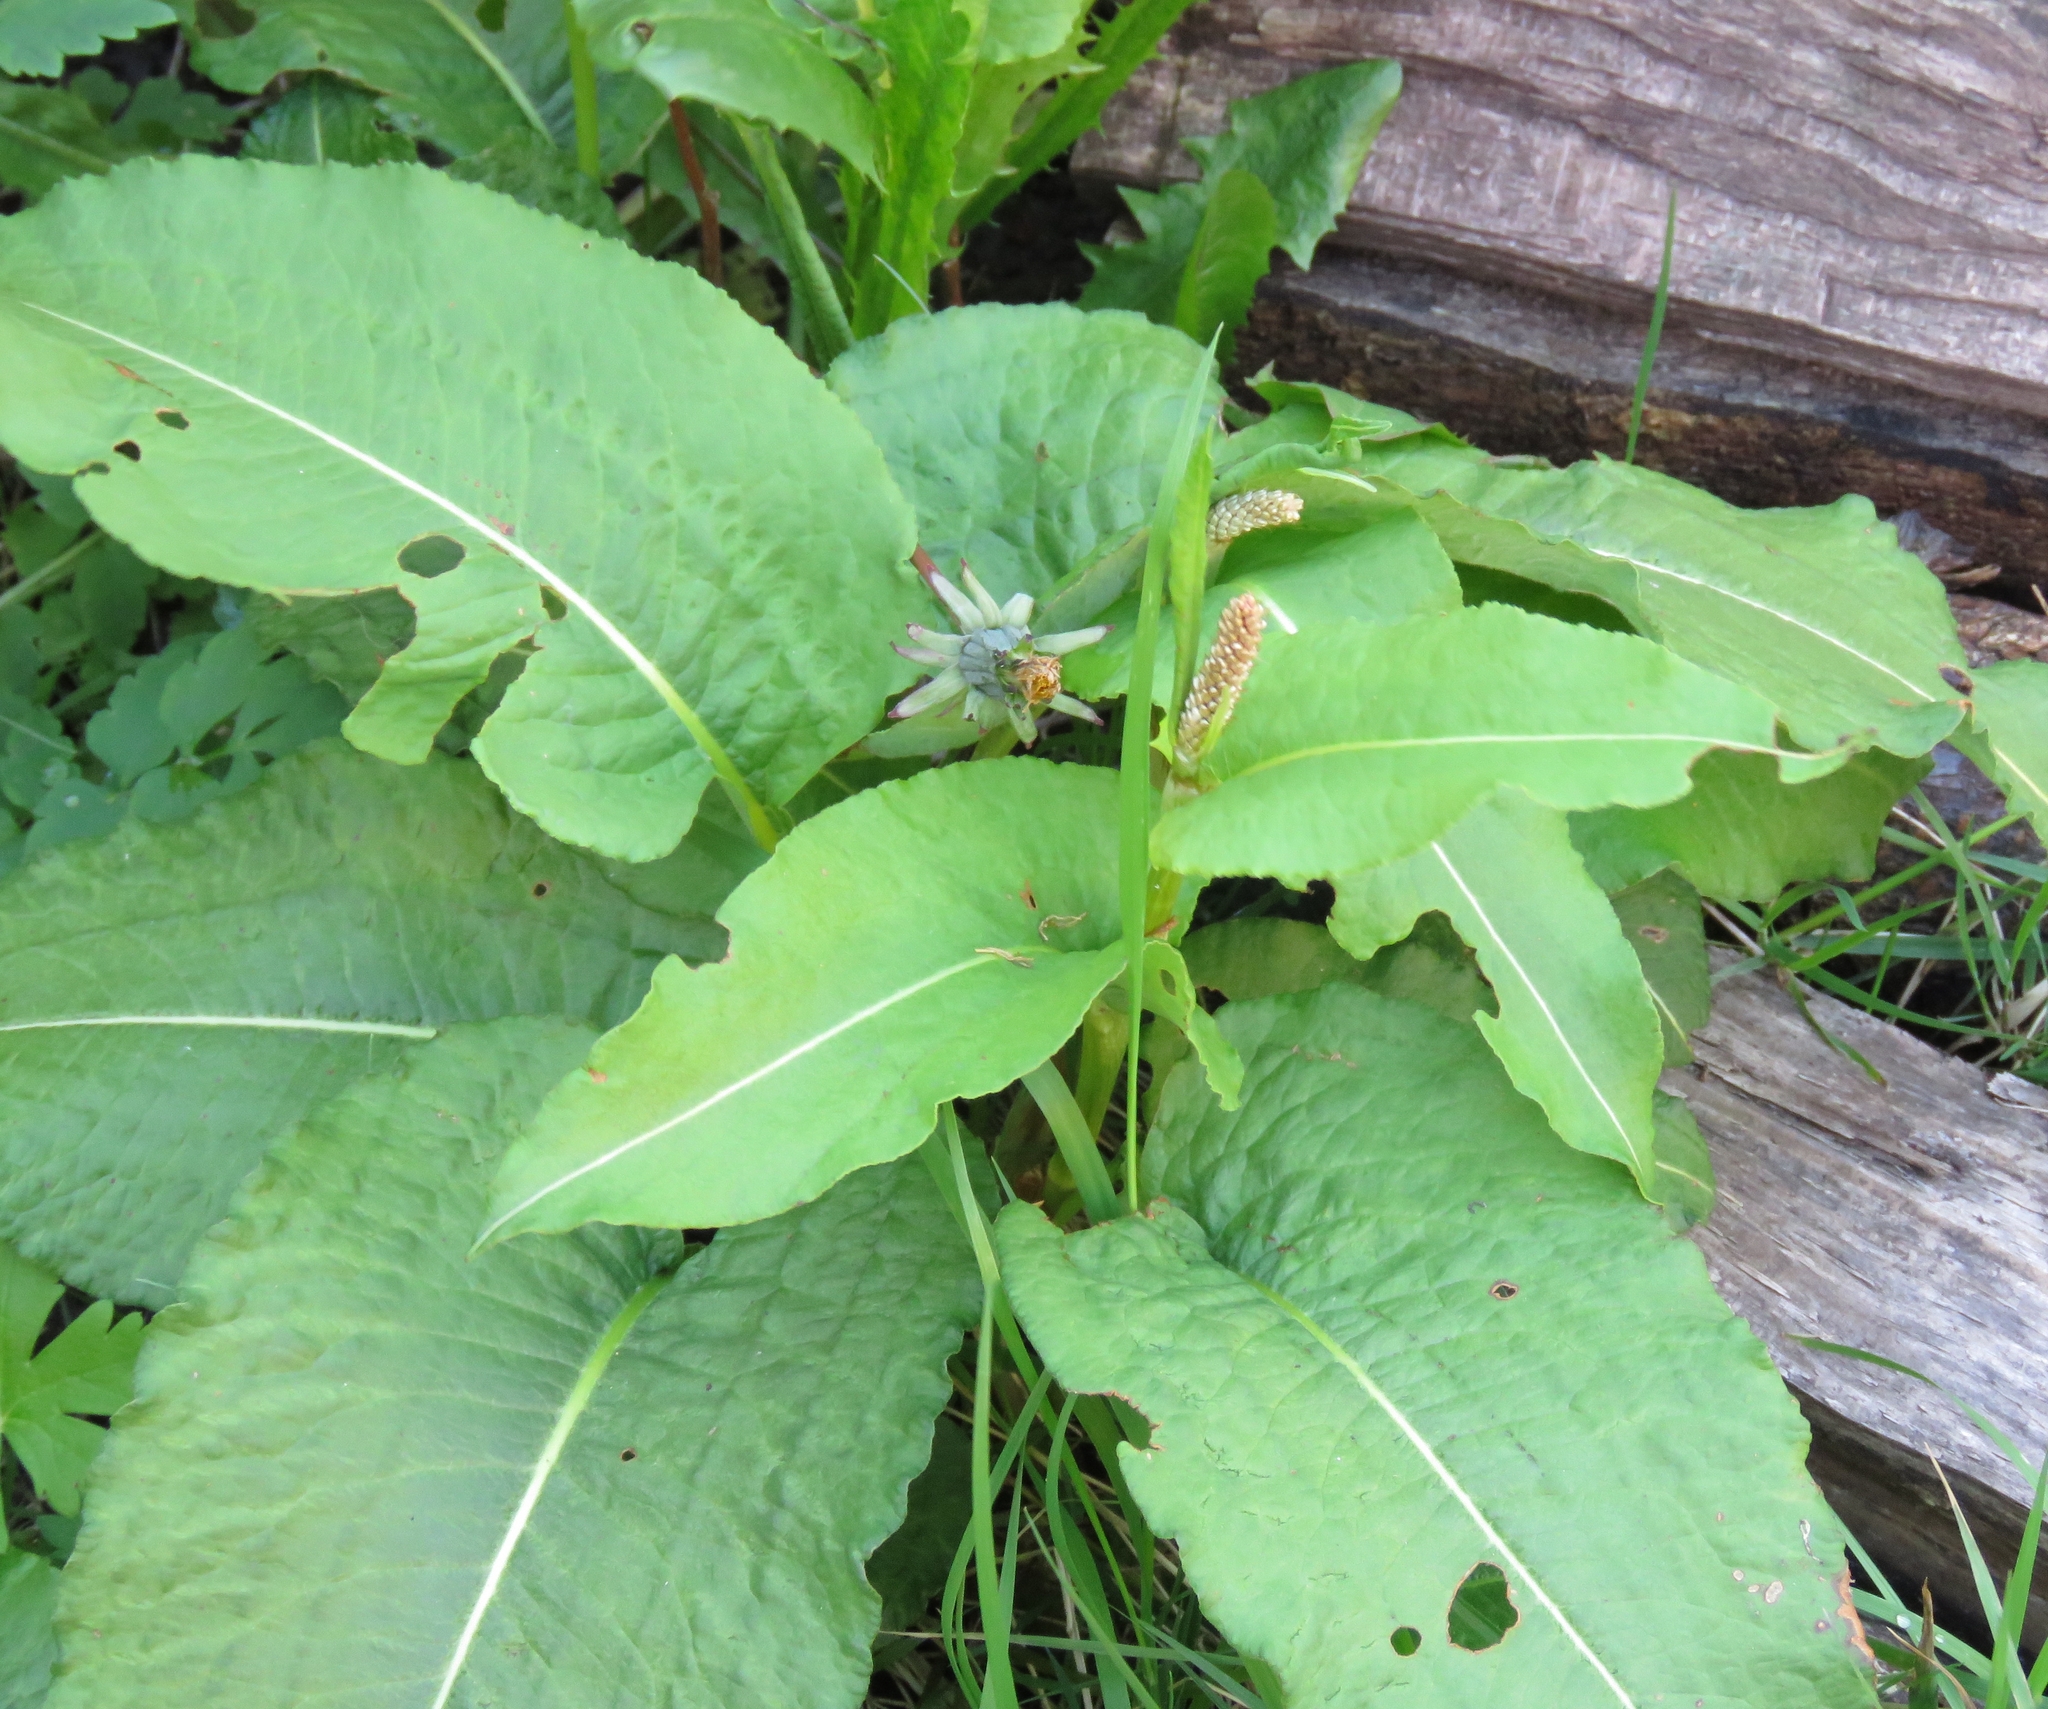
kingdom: Plantae
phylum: Tracheophyta
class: Magnoliopsida
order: Caryophyllales
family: Polygonaceae
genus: Bistorta
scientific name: Bistorta officinalis
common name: Common bistort
